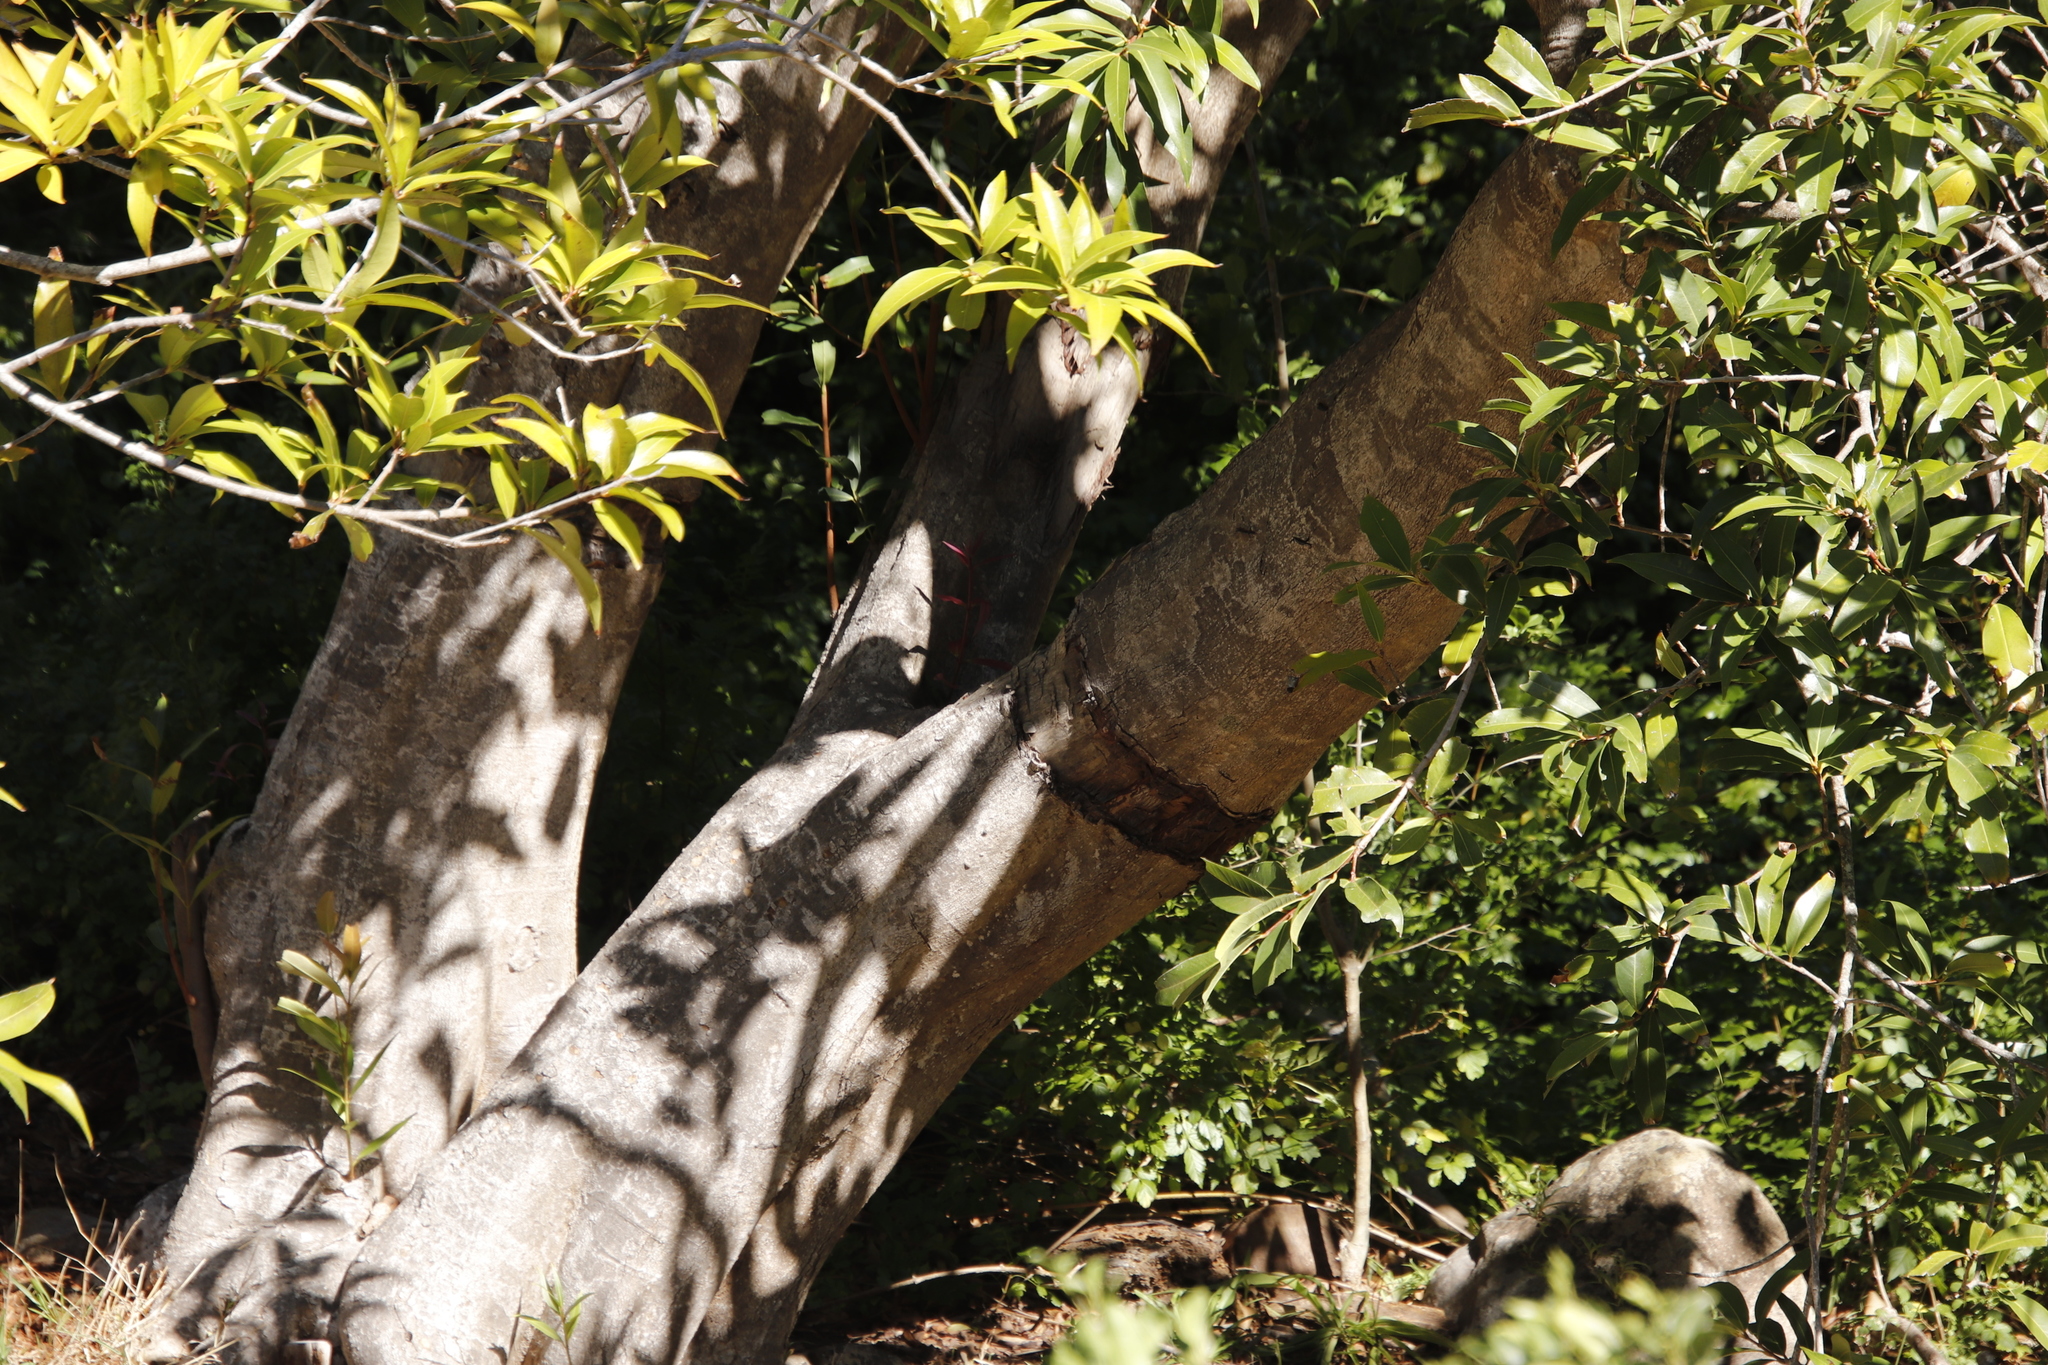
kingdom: Plantae
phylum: Tracheophyta
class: Magnoliopsida
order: Ericales
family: Primulaceae
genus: Myrsine
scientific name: Myrsine melanophloeos
